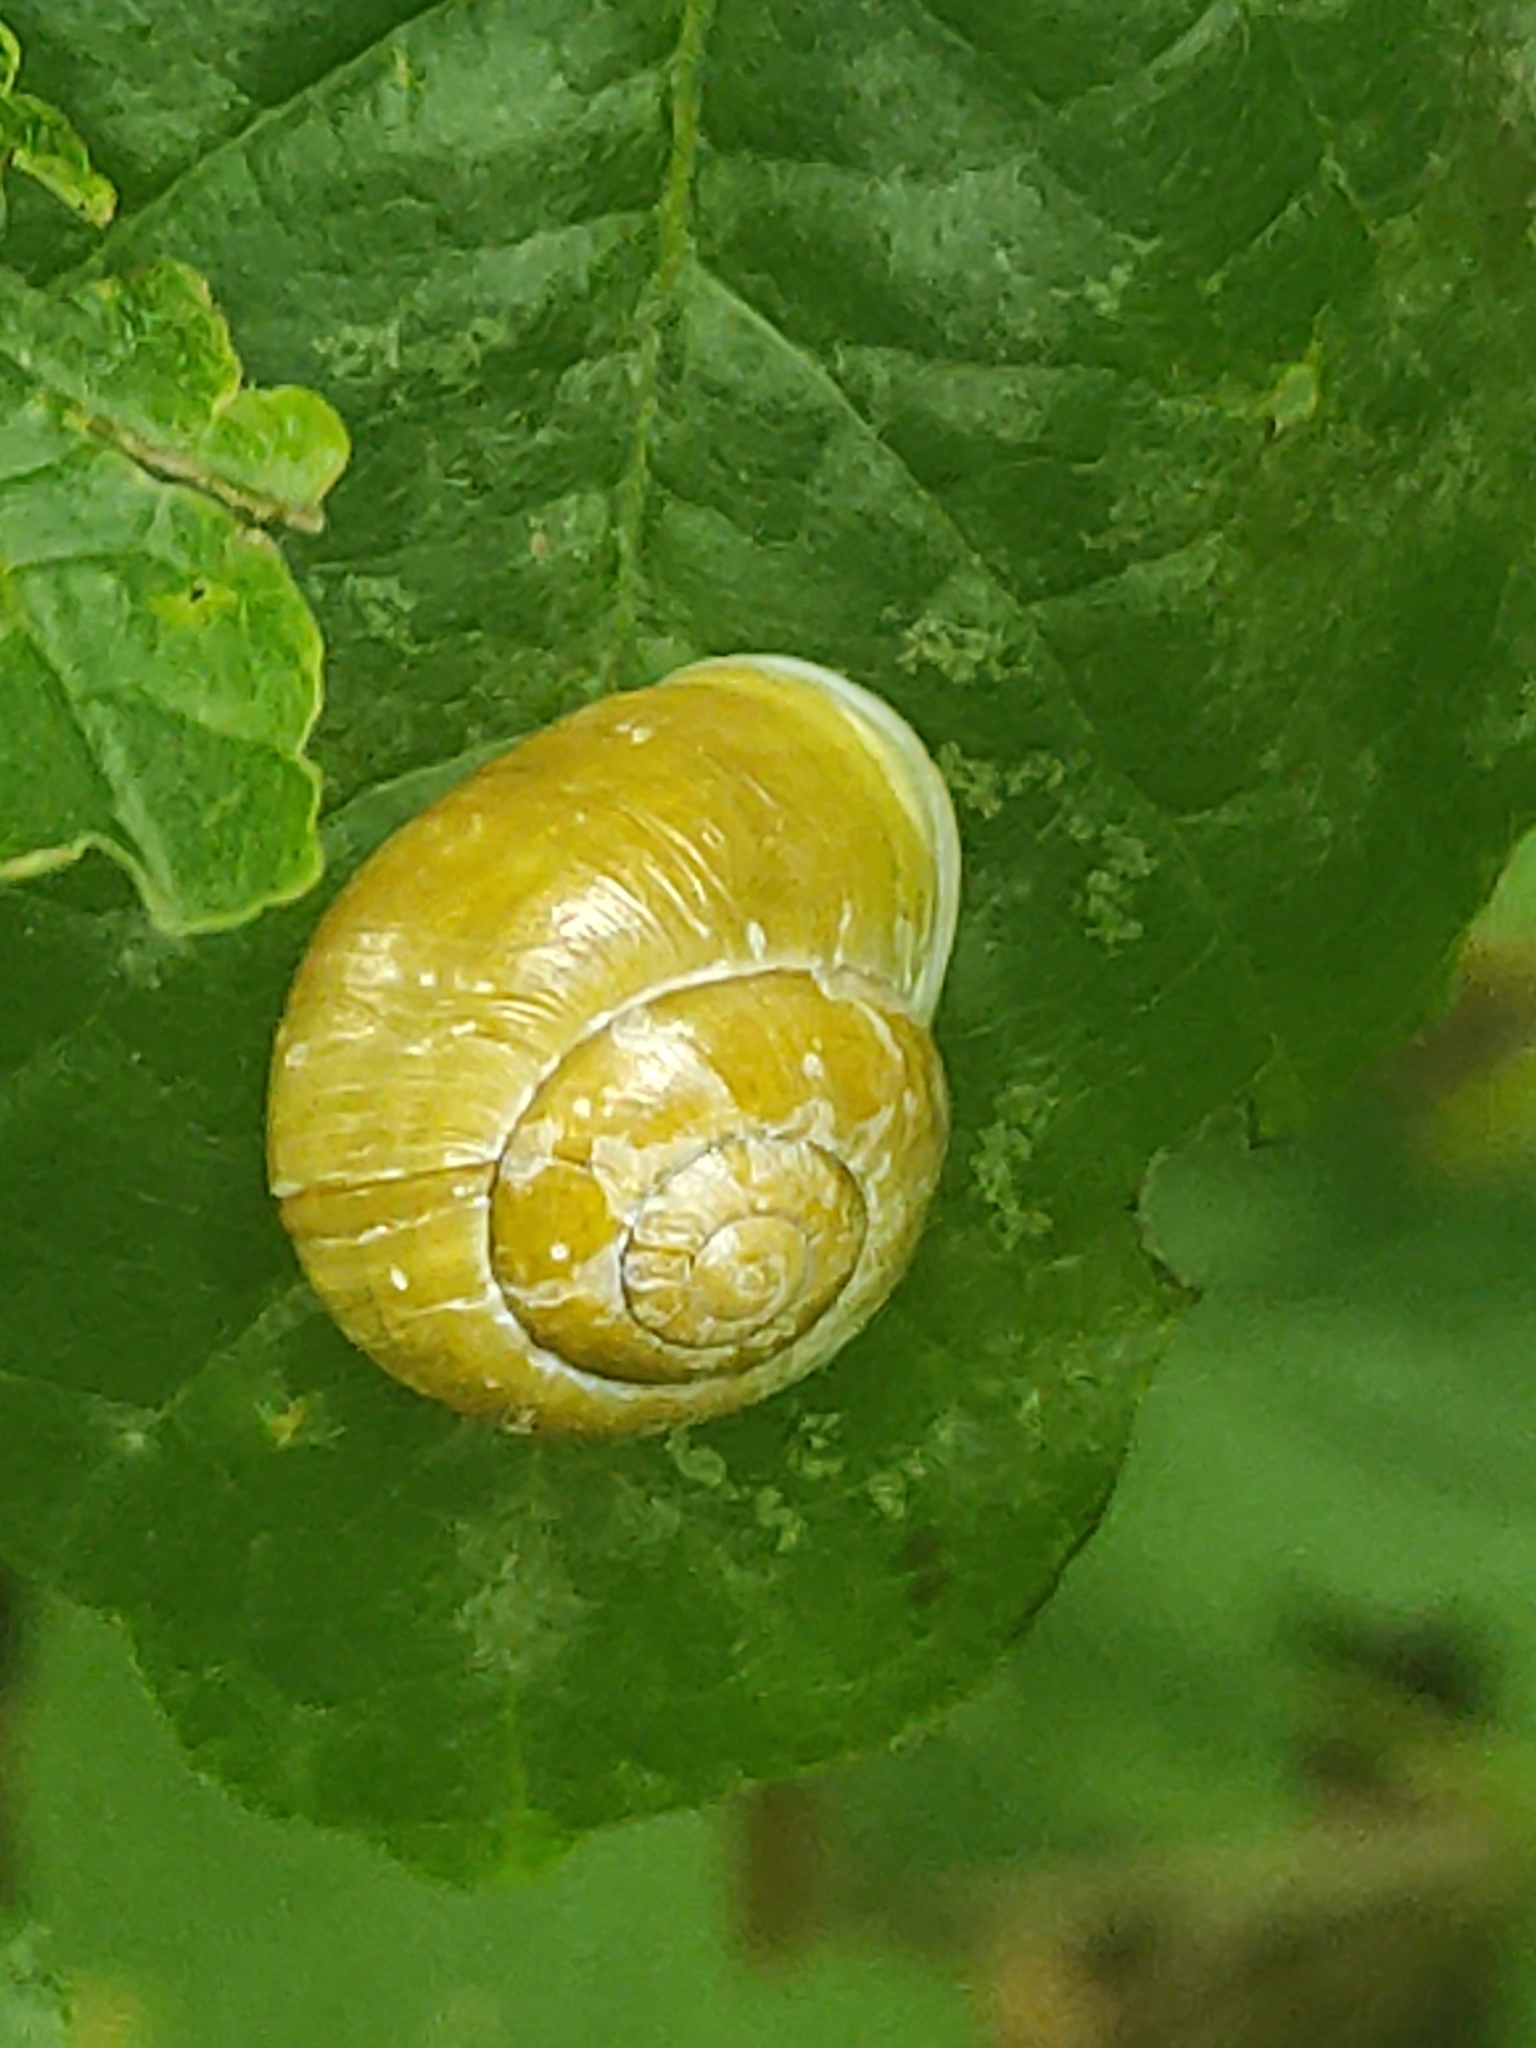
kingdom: Animalia
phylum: Mollusca
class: Gastropoda
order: Stylommatophora
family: Helicidae
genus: Cepaea
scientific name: Cepaea hortensis
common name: White-lip gardensnail
